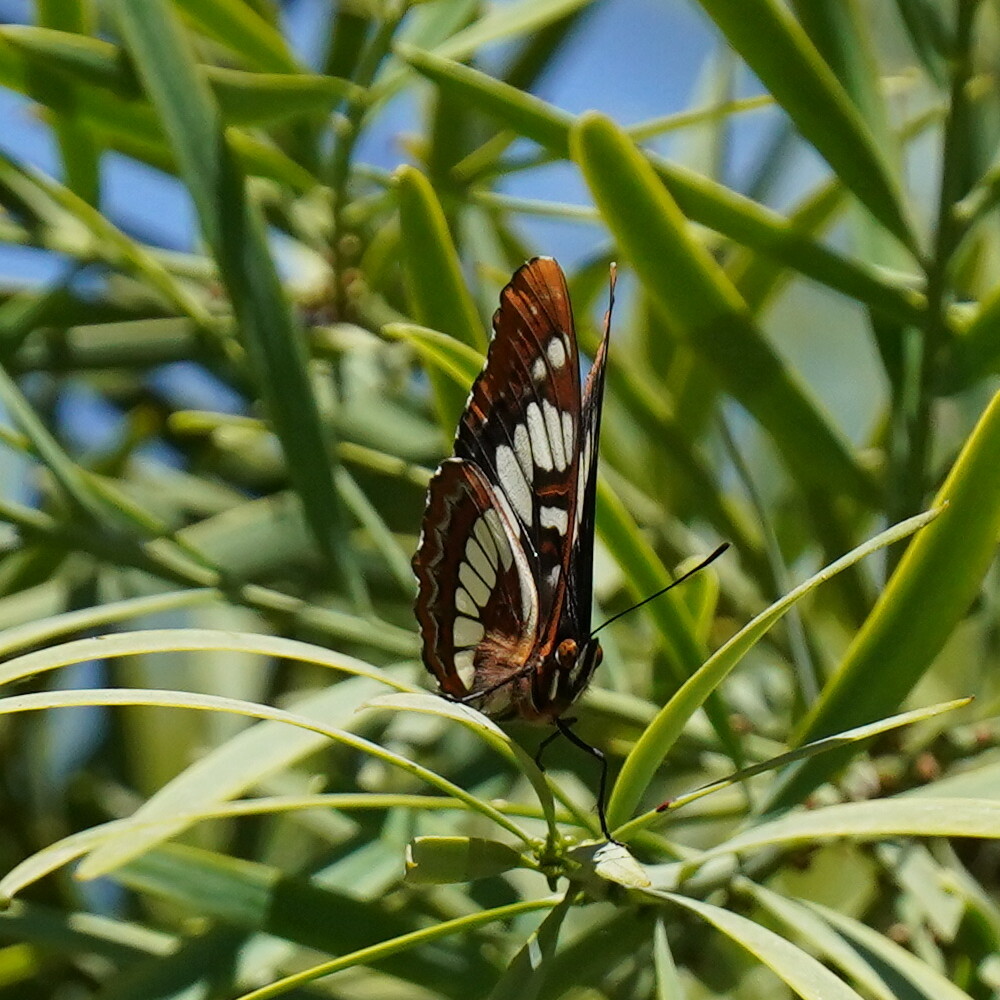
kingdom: Animalia
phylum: Arthropoda
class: Insecta
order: Lepidoptera
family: Nymphalidae
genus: Limenitis
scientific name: Limenitis lorquini
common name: Lorquin's admiral
